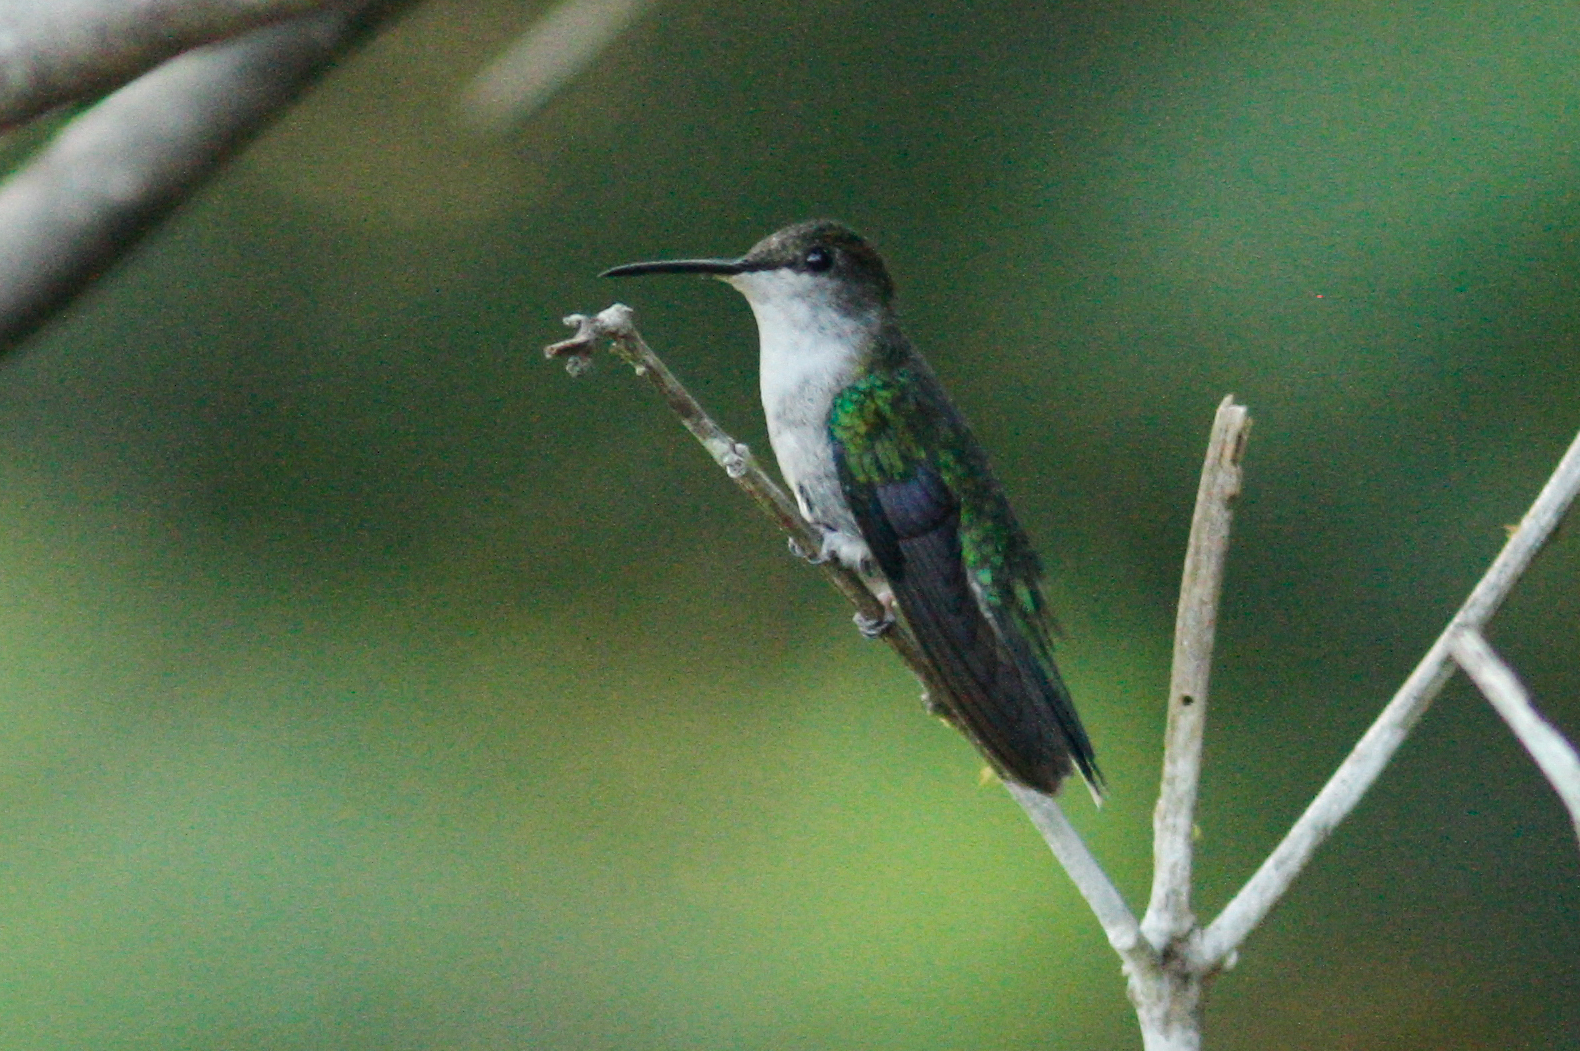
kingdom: Animalia
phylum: Chordata
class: Aves
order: Apodiformes
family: Trochilidae
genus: Thalurania
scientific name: Thalurania furcata
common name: Fork-tailed woodnymph
